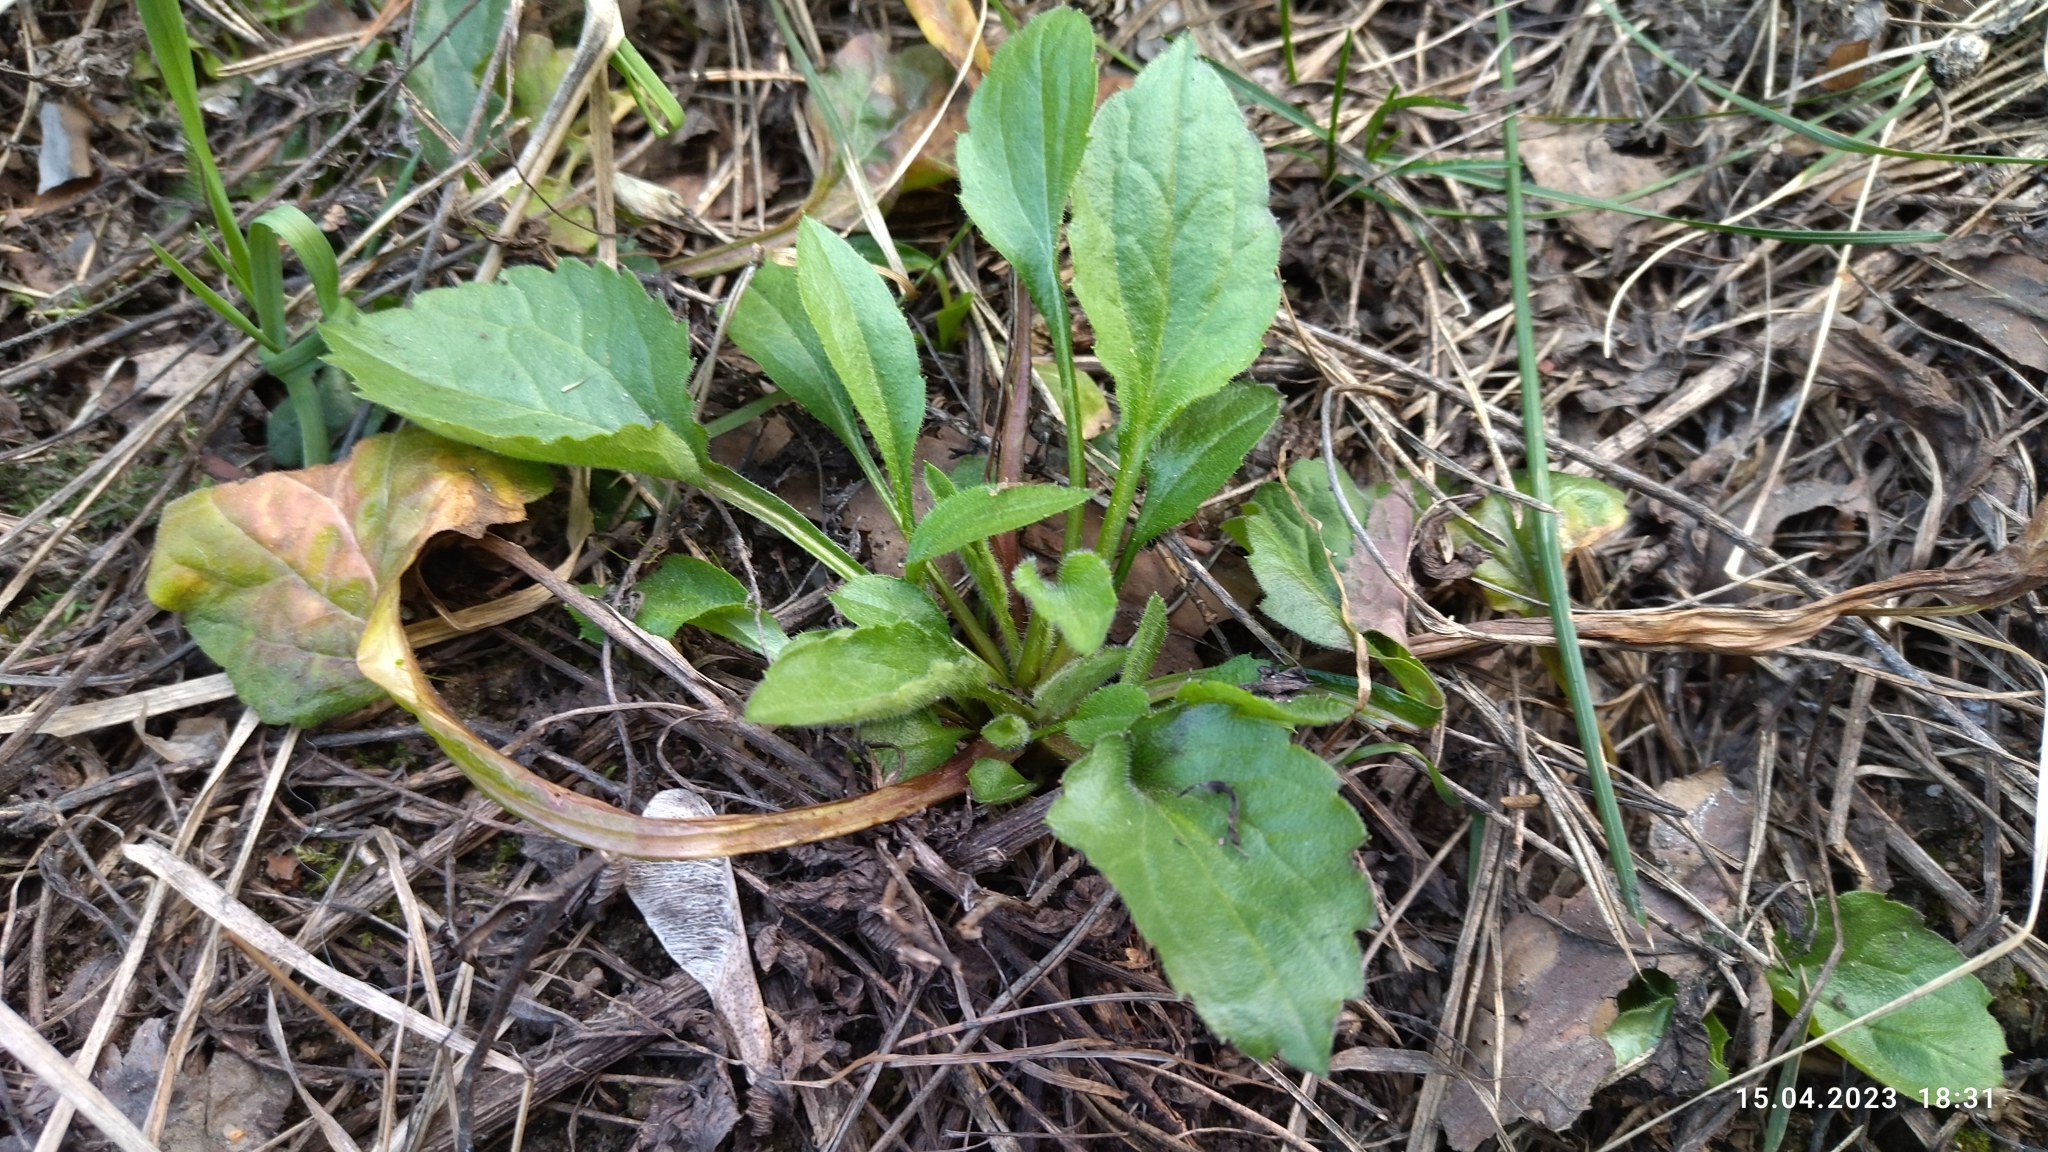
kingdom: Plantae
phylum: Tracheophyta
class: Magnoliopsida
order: Asterales
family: Asteraceae
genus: Erigeron
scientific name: Erigeron annuus
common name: Tall fleabane
